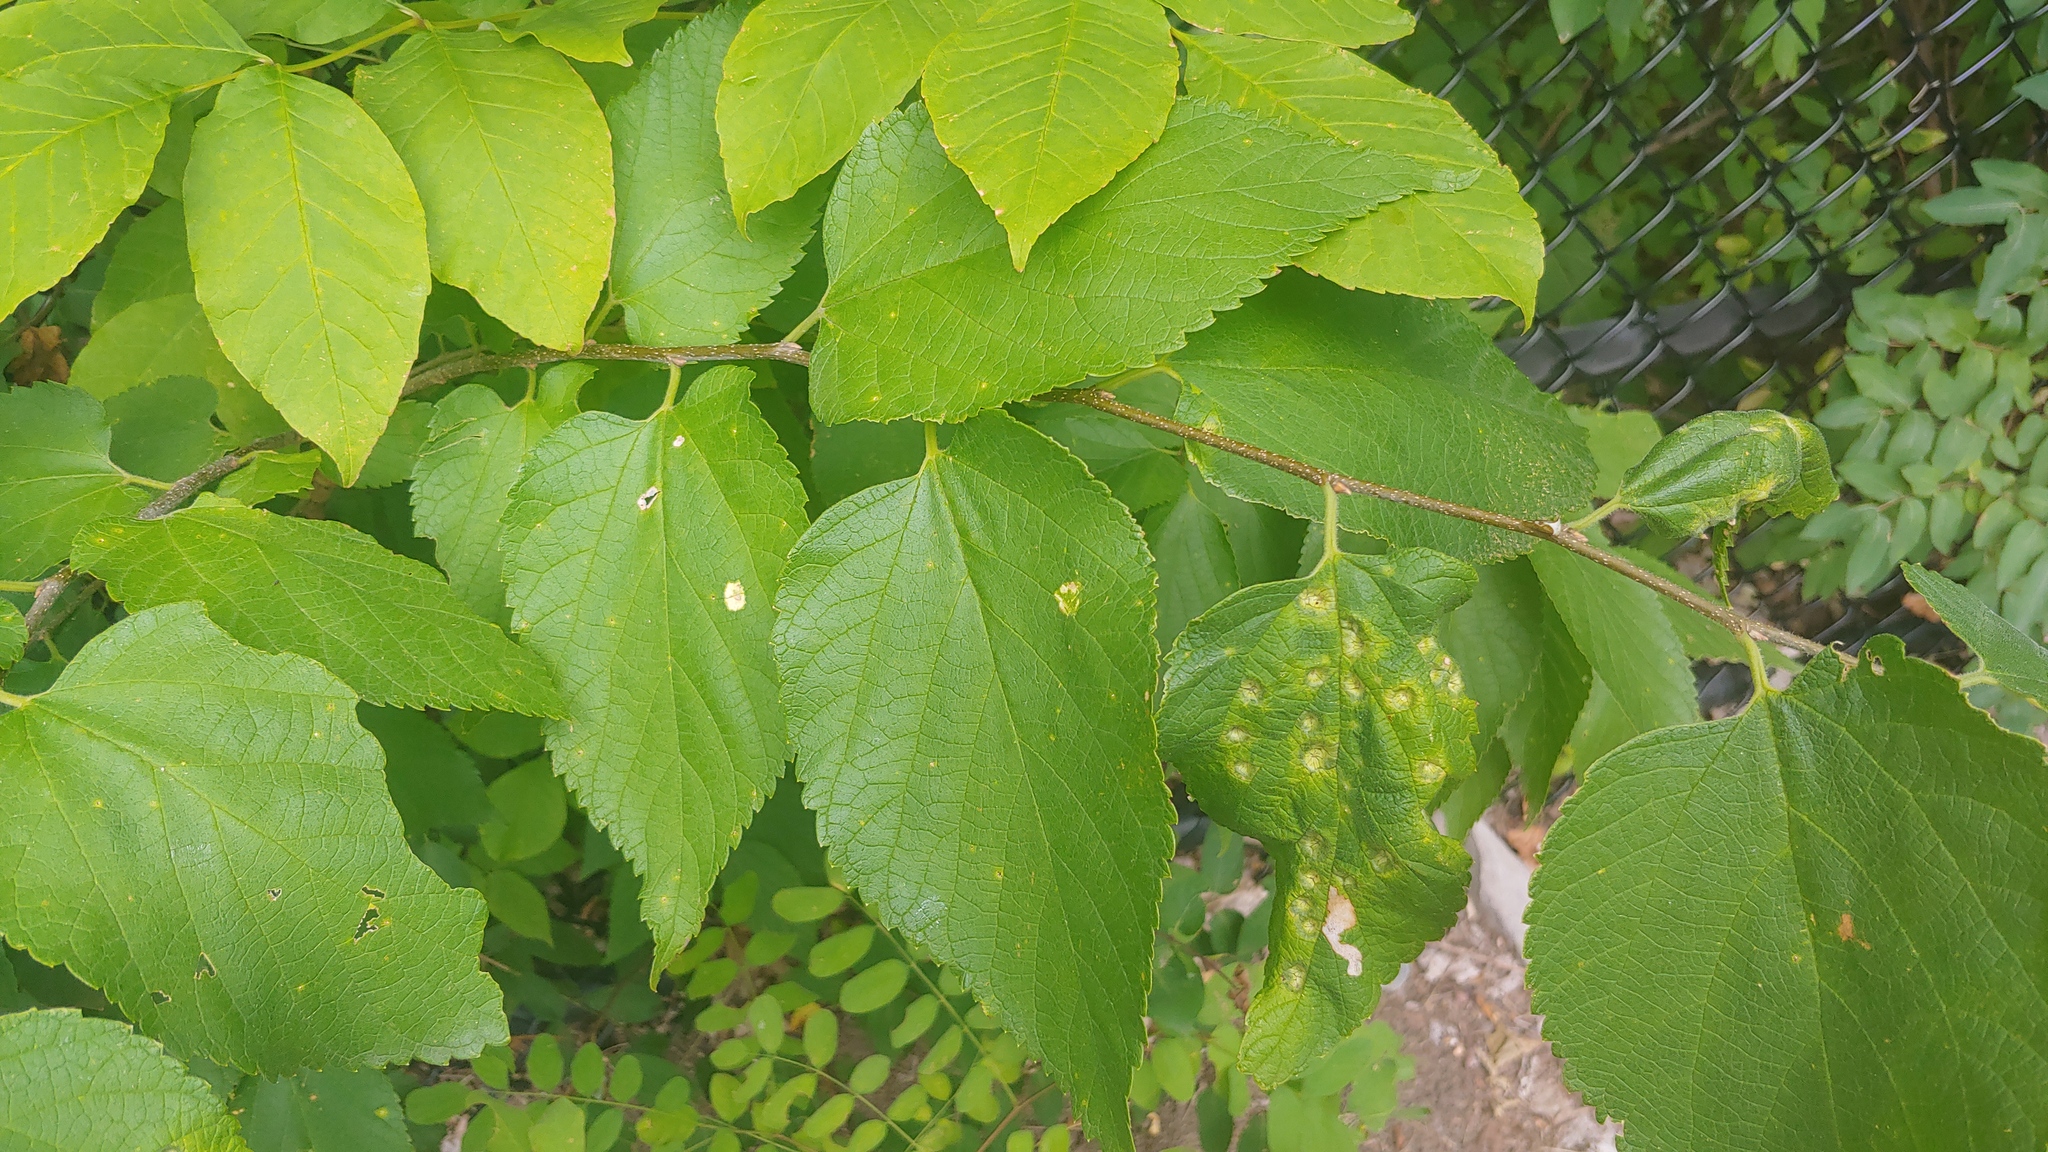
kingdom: Plantae
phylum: Tracheophyta
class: Magnoliopsida
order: Rosales
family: Cannabaceae
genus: Celtis
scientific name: Celtis occidentalis
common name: Common hackberry
